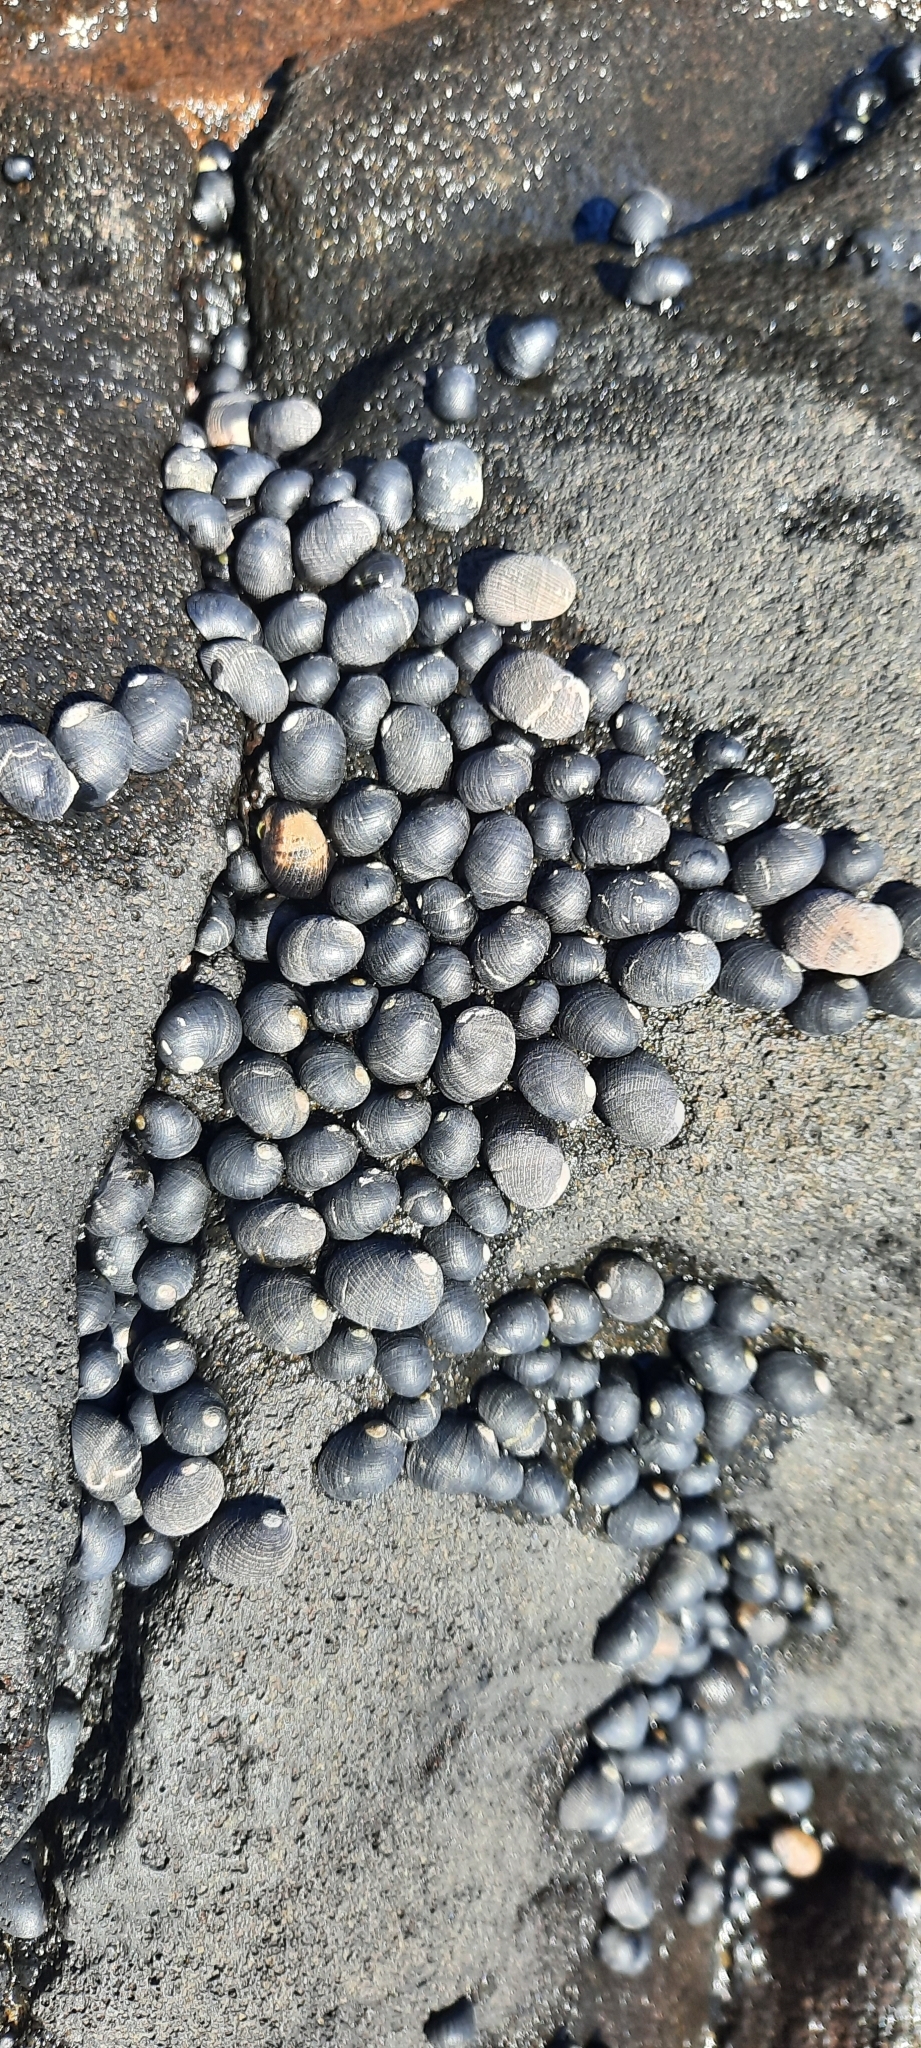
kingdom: Animalia
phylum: Mollusca
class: Gastropoda
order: Cycloneritida
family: Neritidae
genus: Nerita
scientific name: Nerita picea
